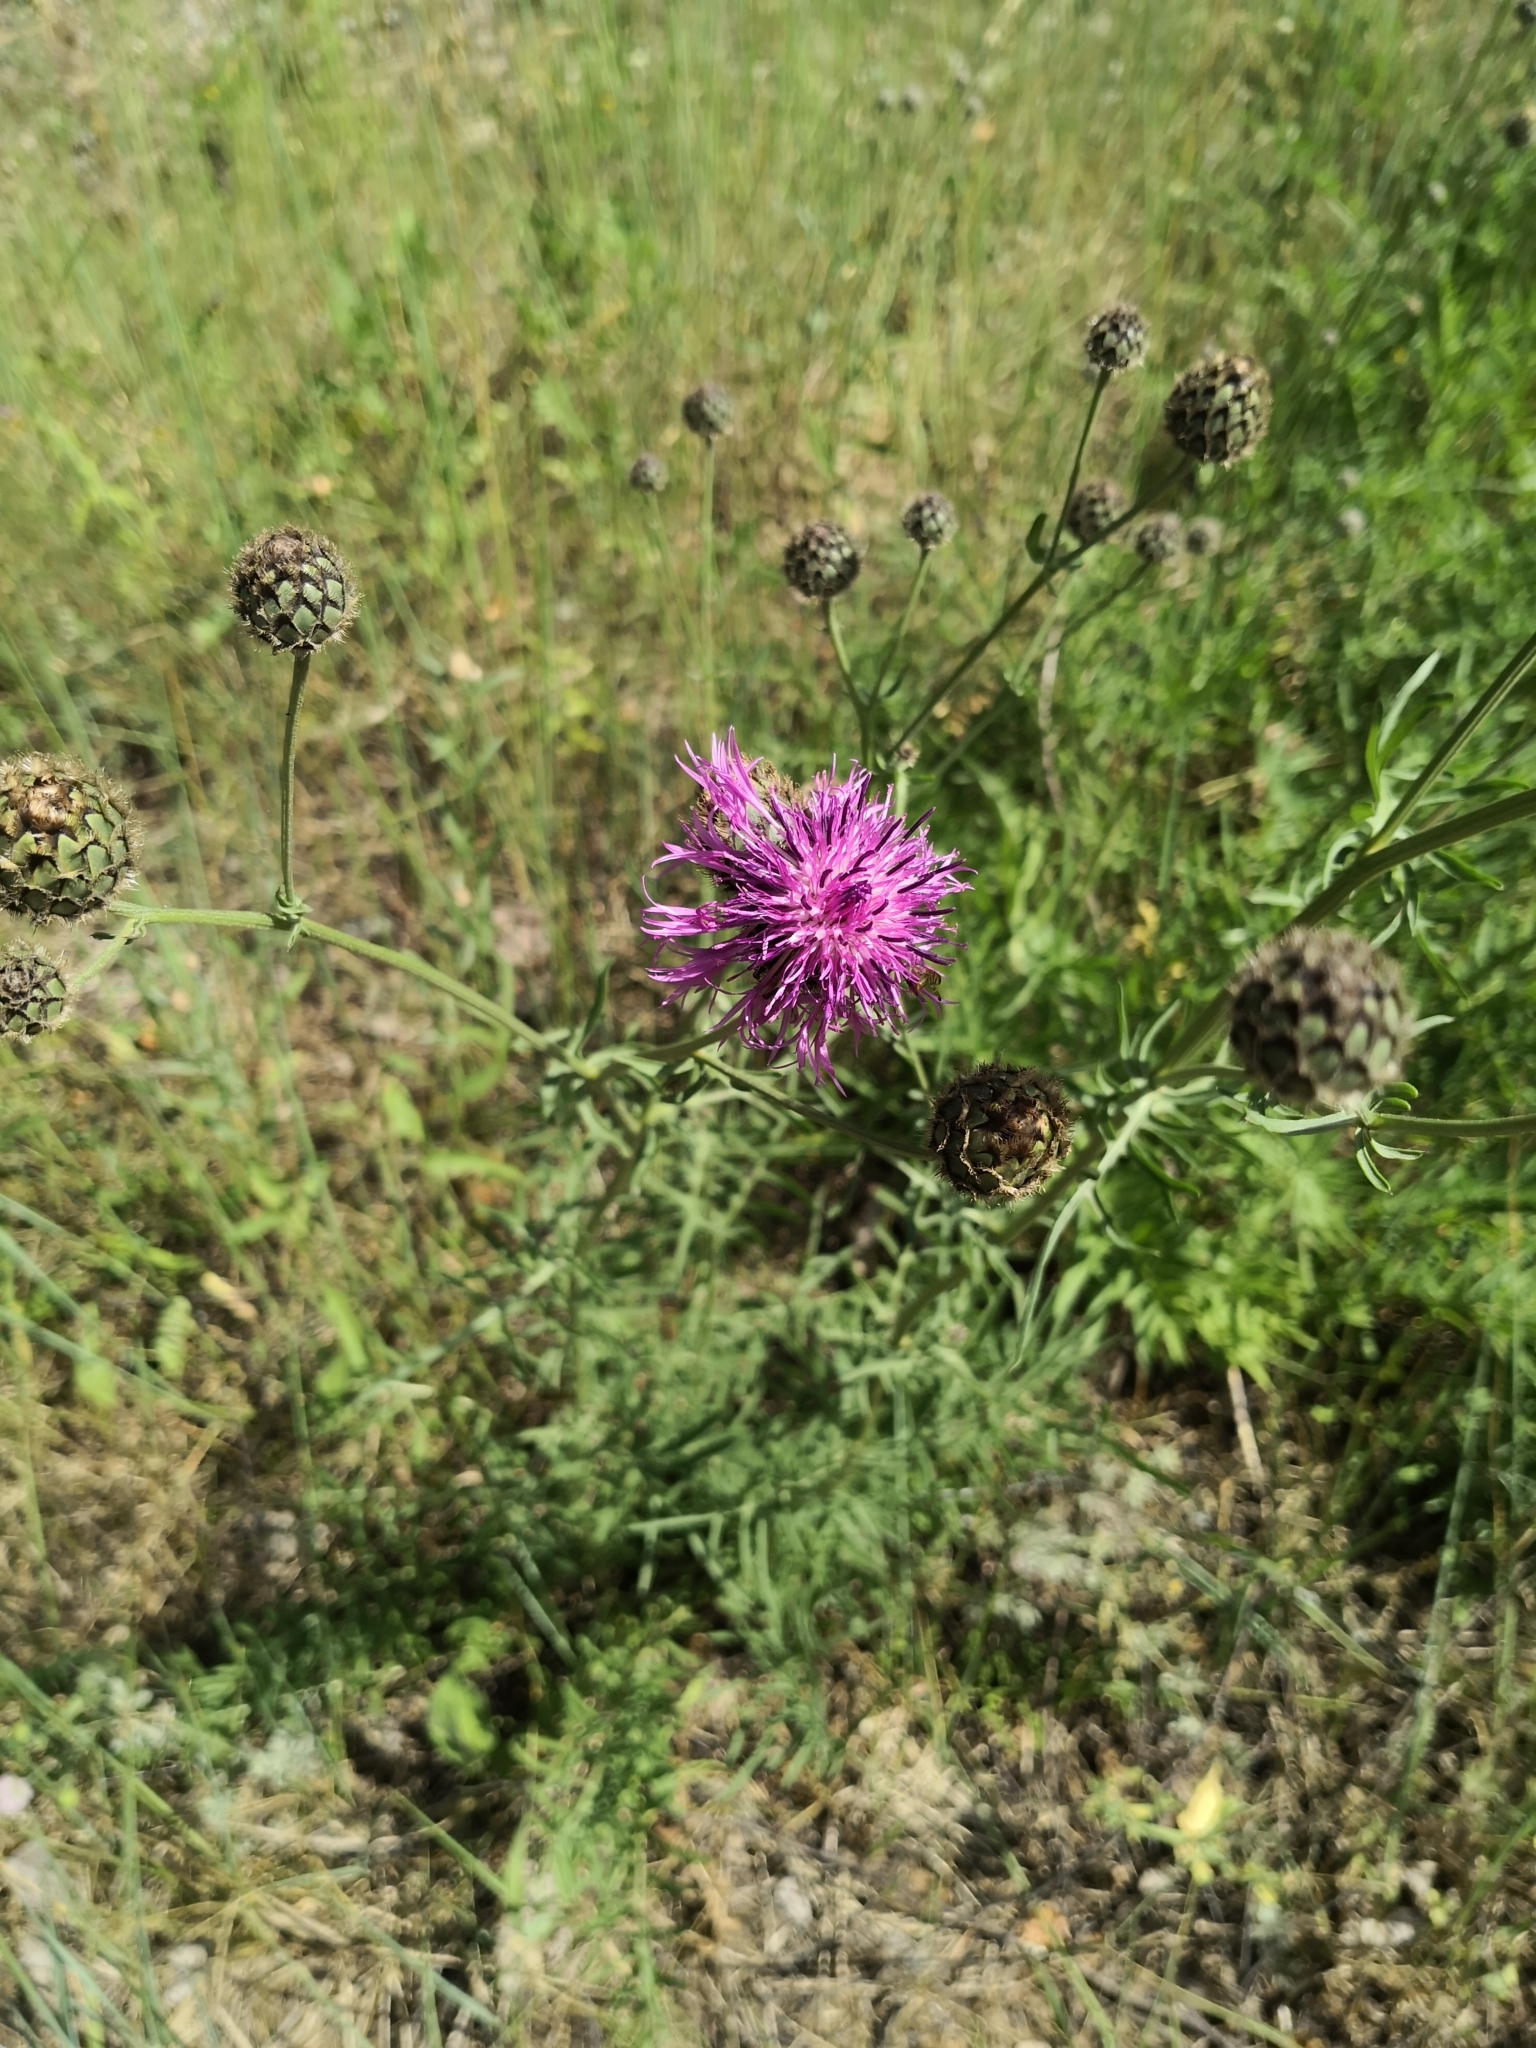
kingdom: Plantae
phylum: Tracheophyta
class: Magnoliopsida
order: Asterales
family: Asteraceae
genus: Centaurea
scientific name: Centaurea scabiosa
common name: Greater knapweed
